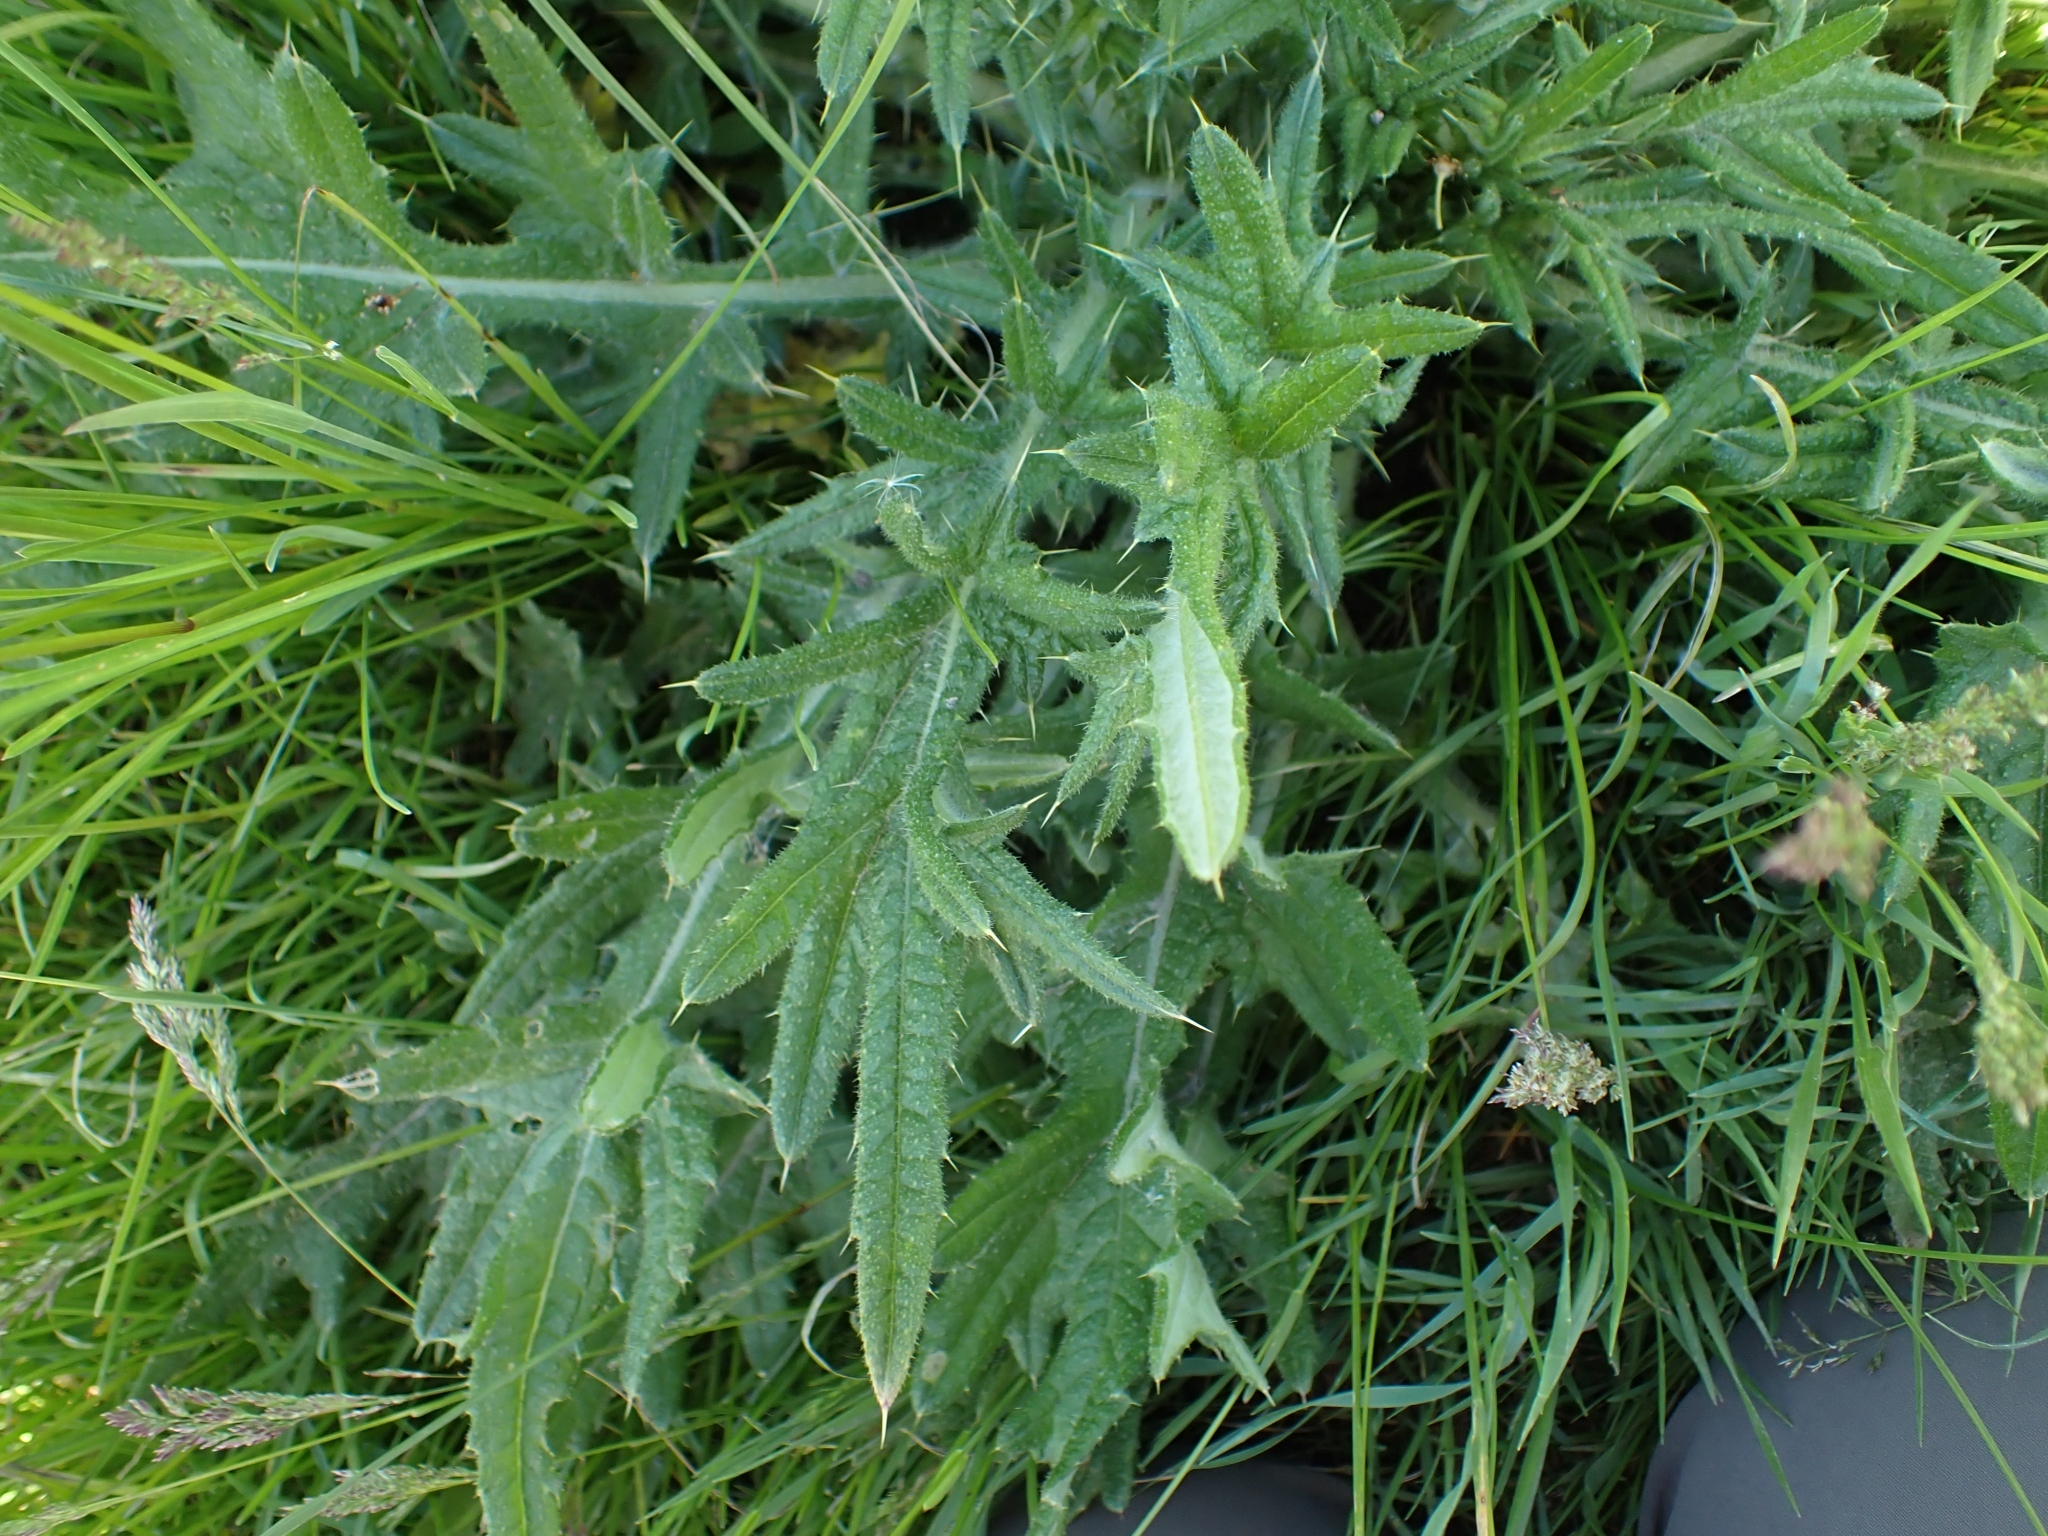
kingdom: Plantae
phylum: Tracheophyta
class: Magnoliopsida
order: Asterales
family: Asteraceae
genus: Cirsium
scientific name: Cirsium vulgare
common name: Bull thistle
